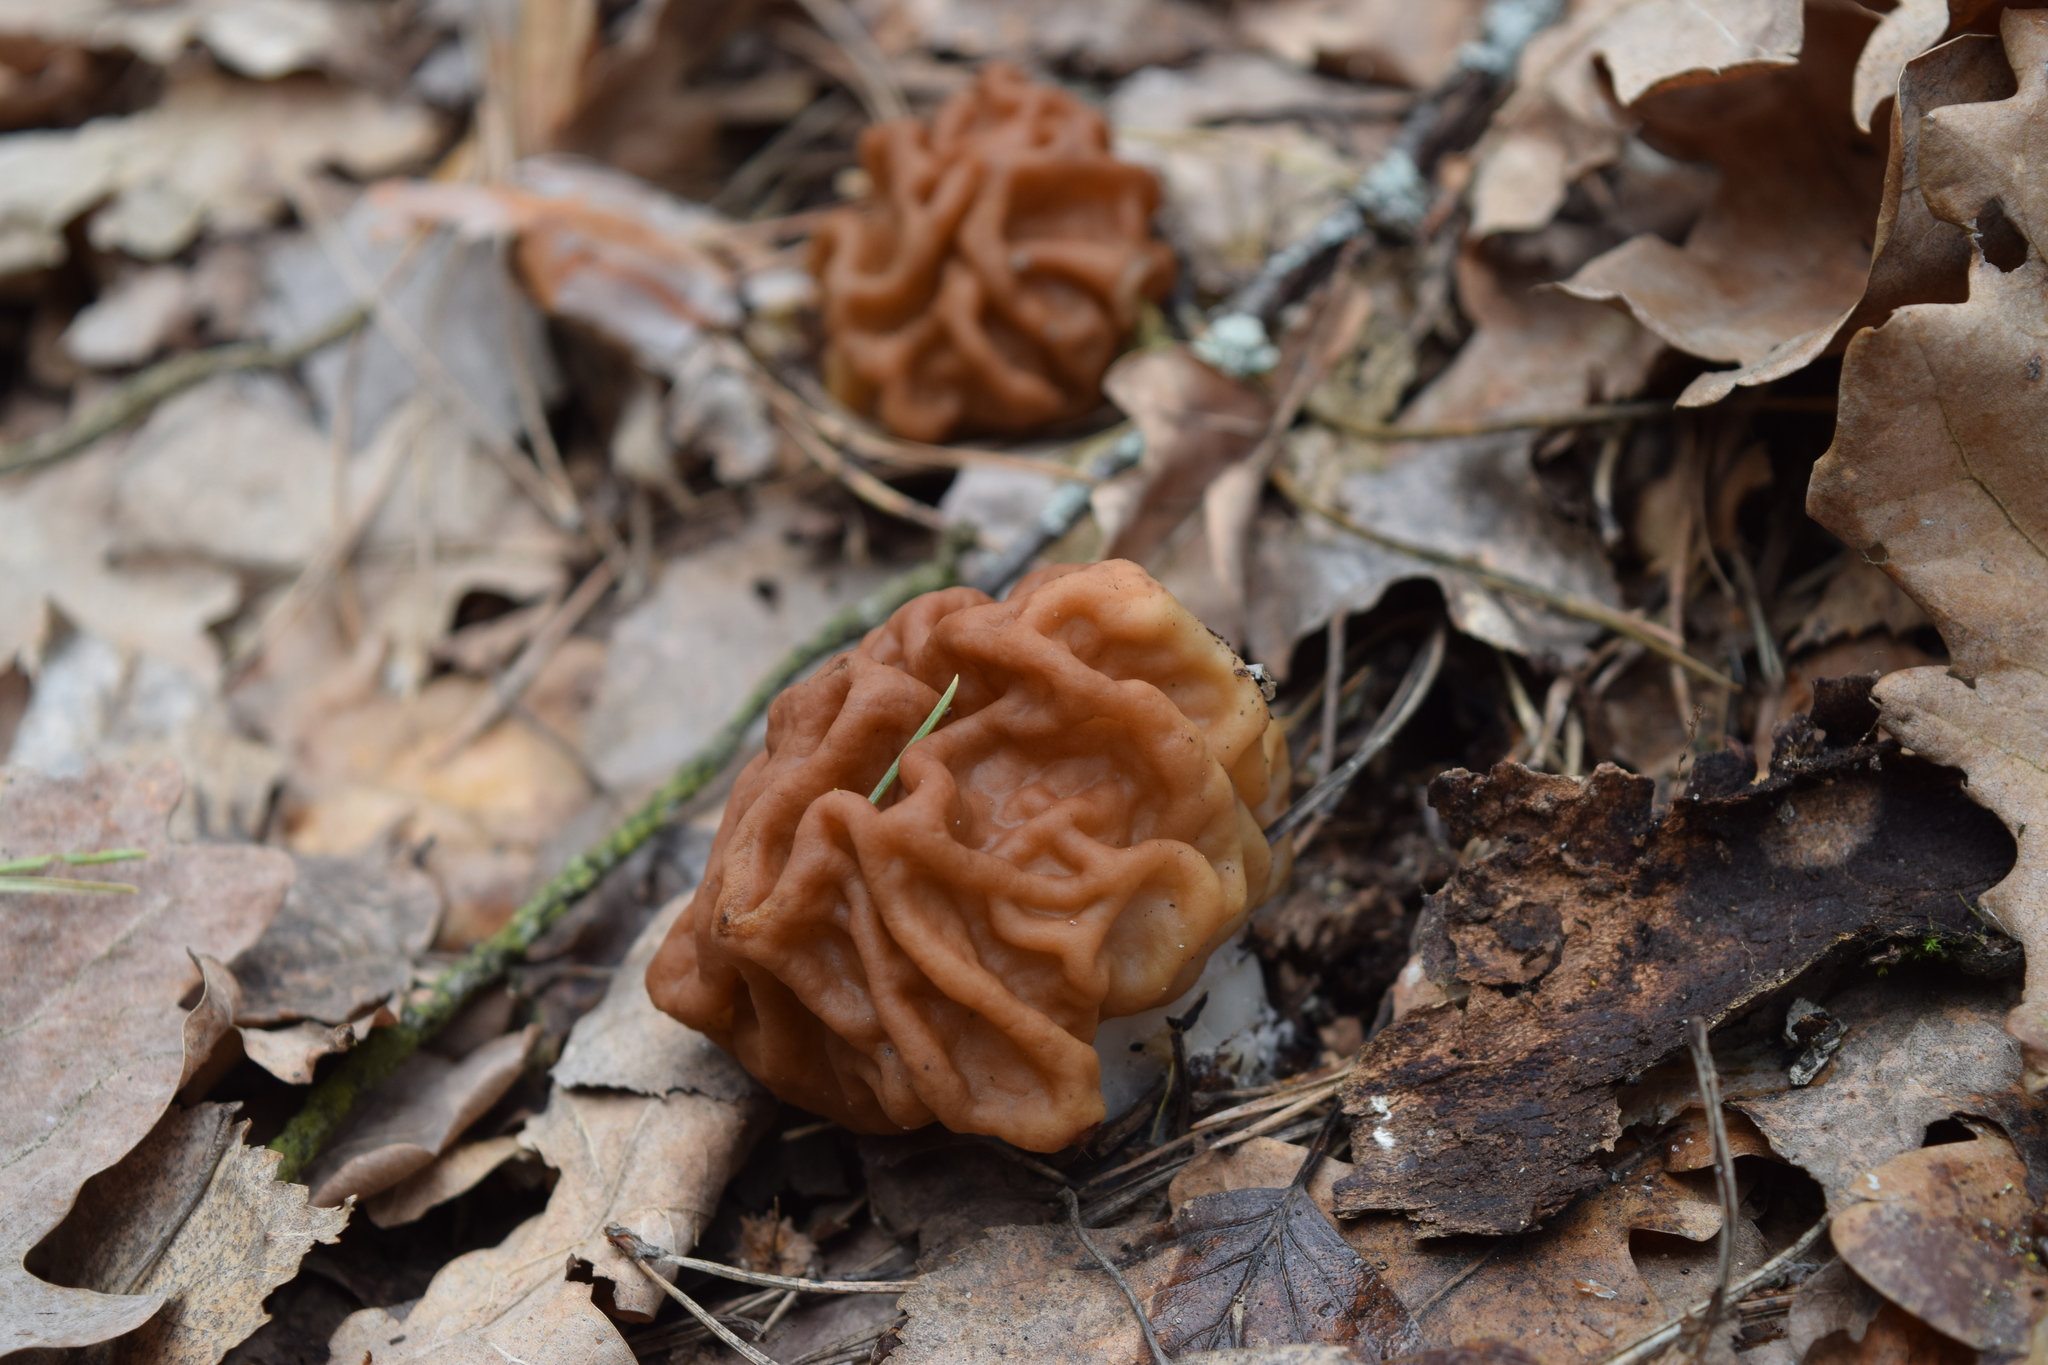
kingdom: Fungi
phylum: Ascomycota
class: Pezizomycetes
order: Pezizales
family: Discinaceae
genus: Gyromitra
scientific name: Gyromitra gigas
